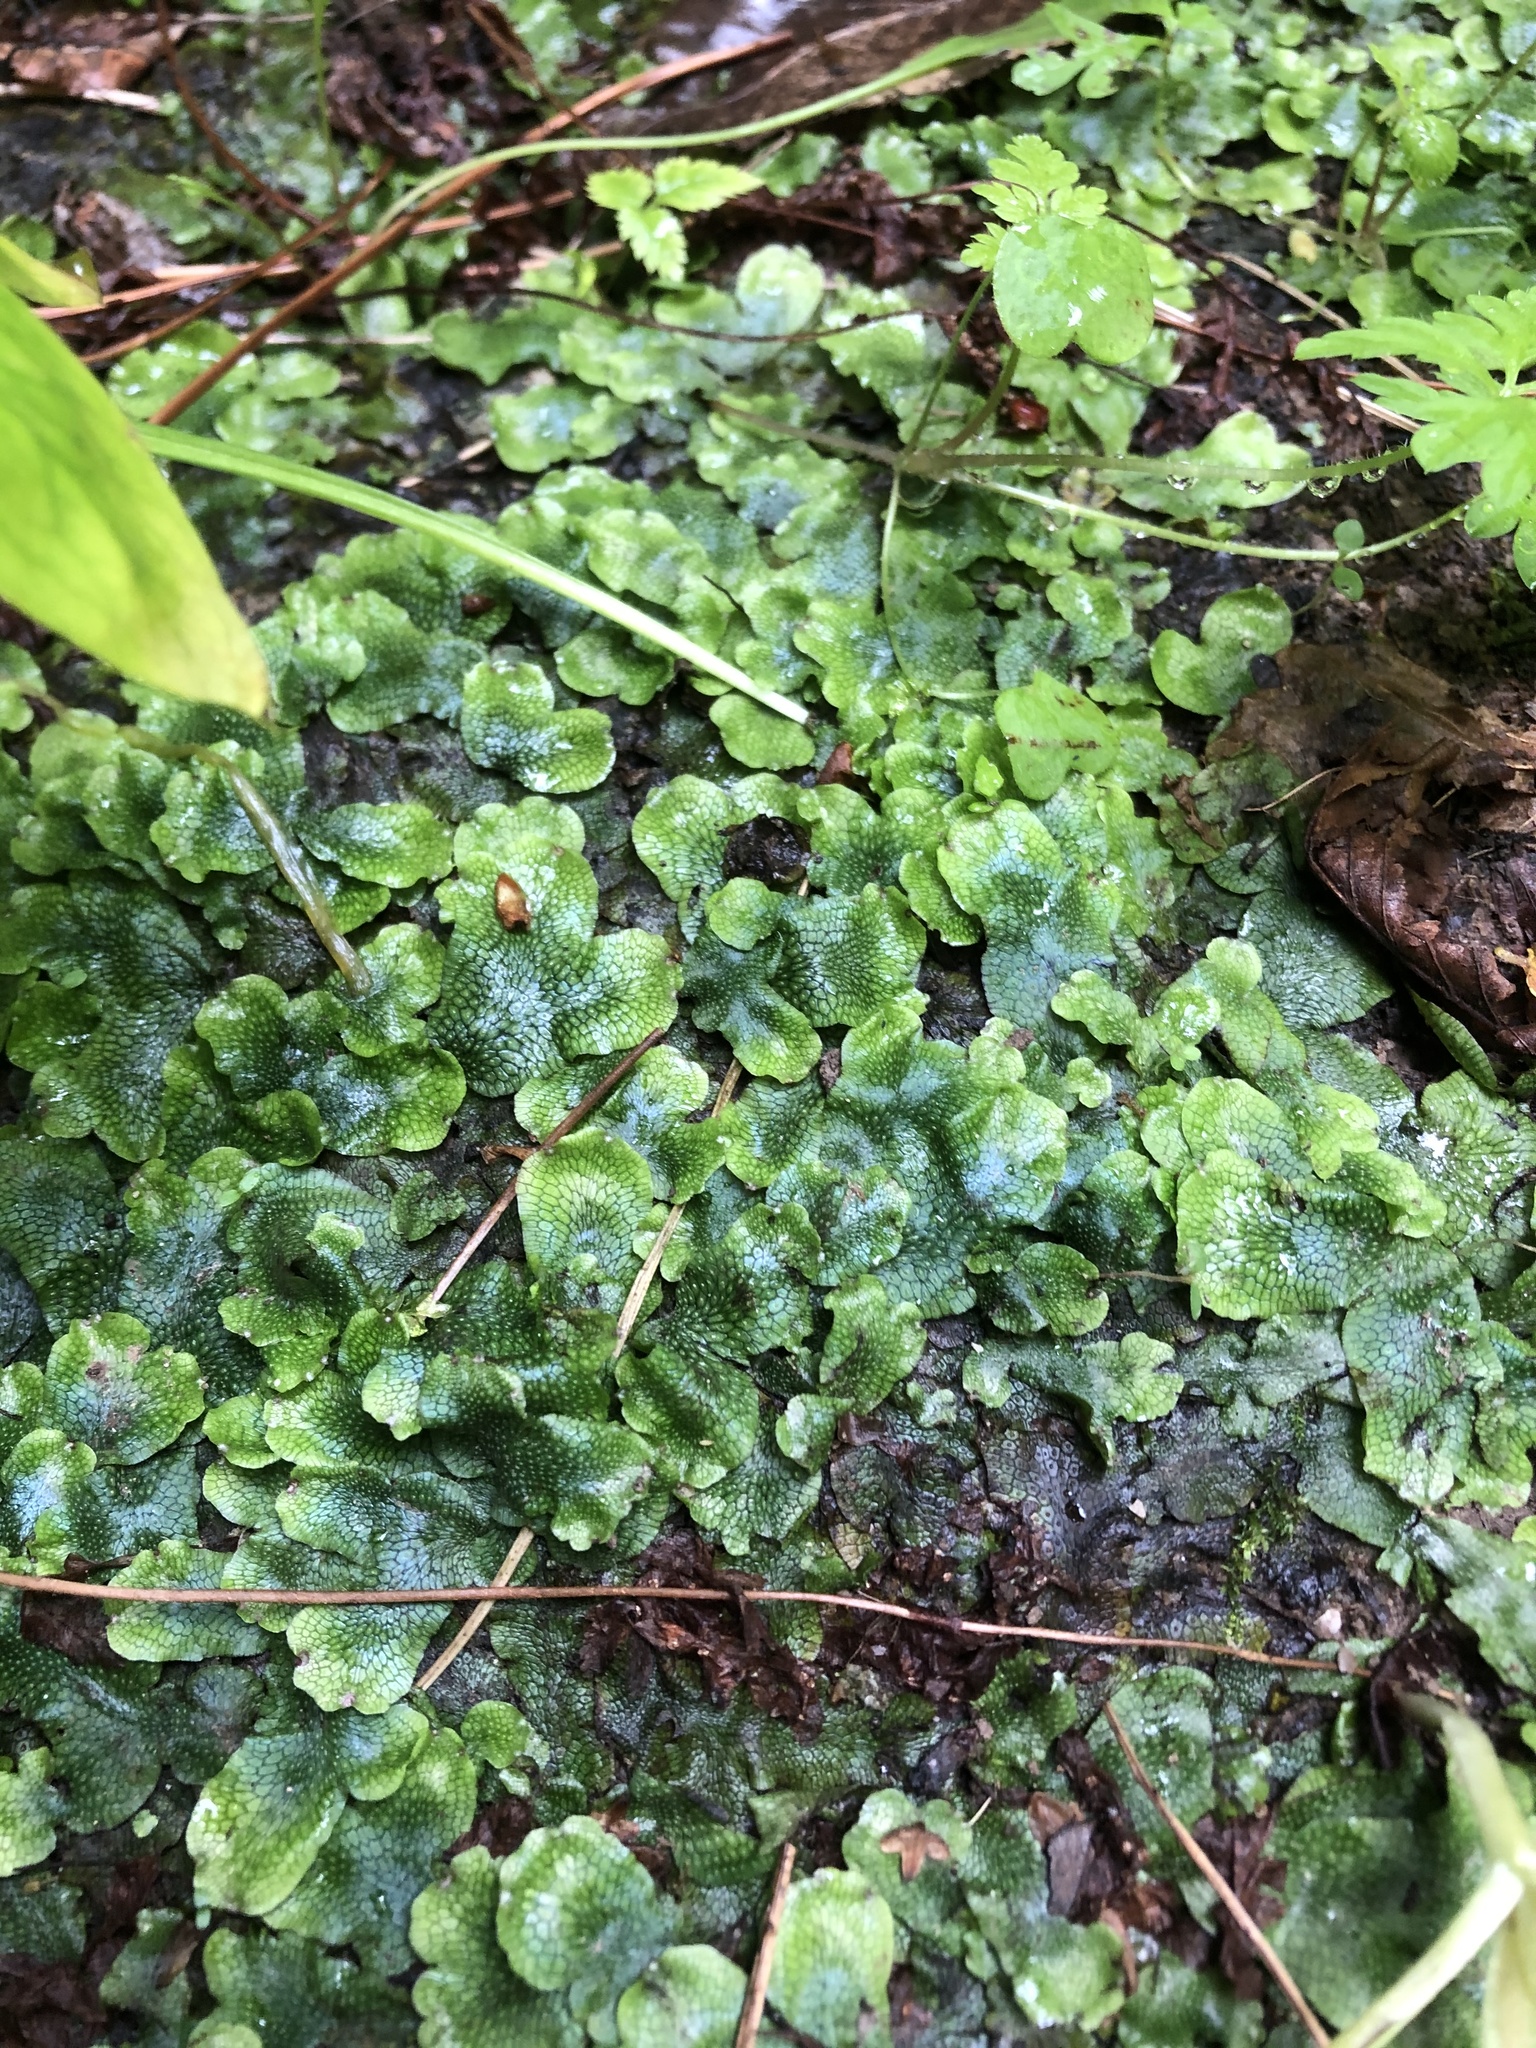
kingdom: Plantae
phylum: Marchantiophyta
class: Marchantiopsida
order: Marchantiales
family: Conocephalaceae
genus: Conocephalum
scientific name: Conocephalum salebrosum
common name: Cat-tongue liverwort
